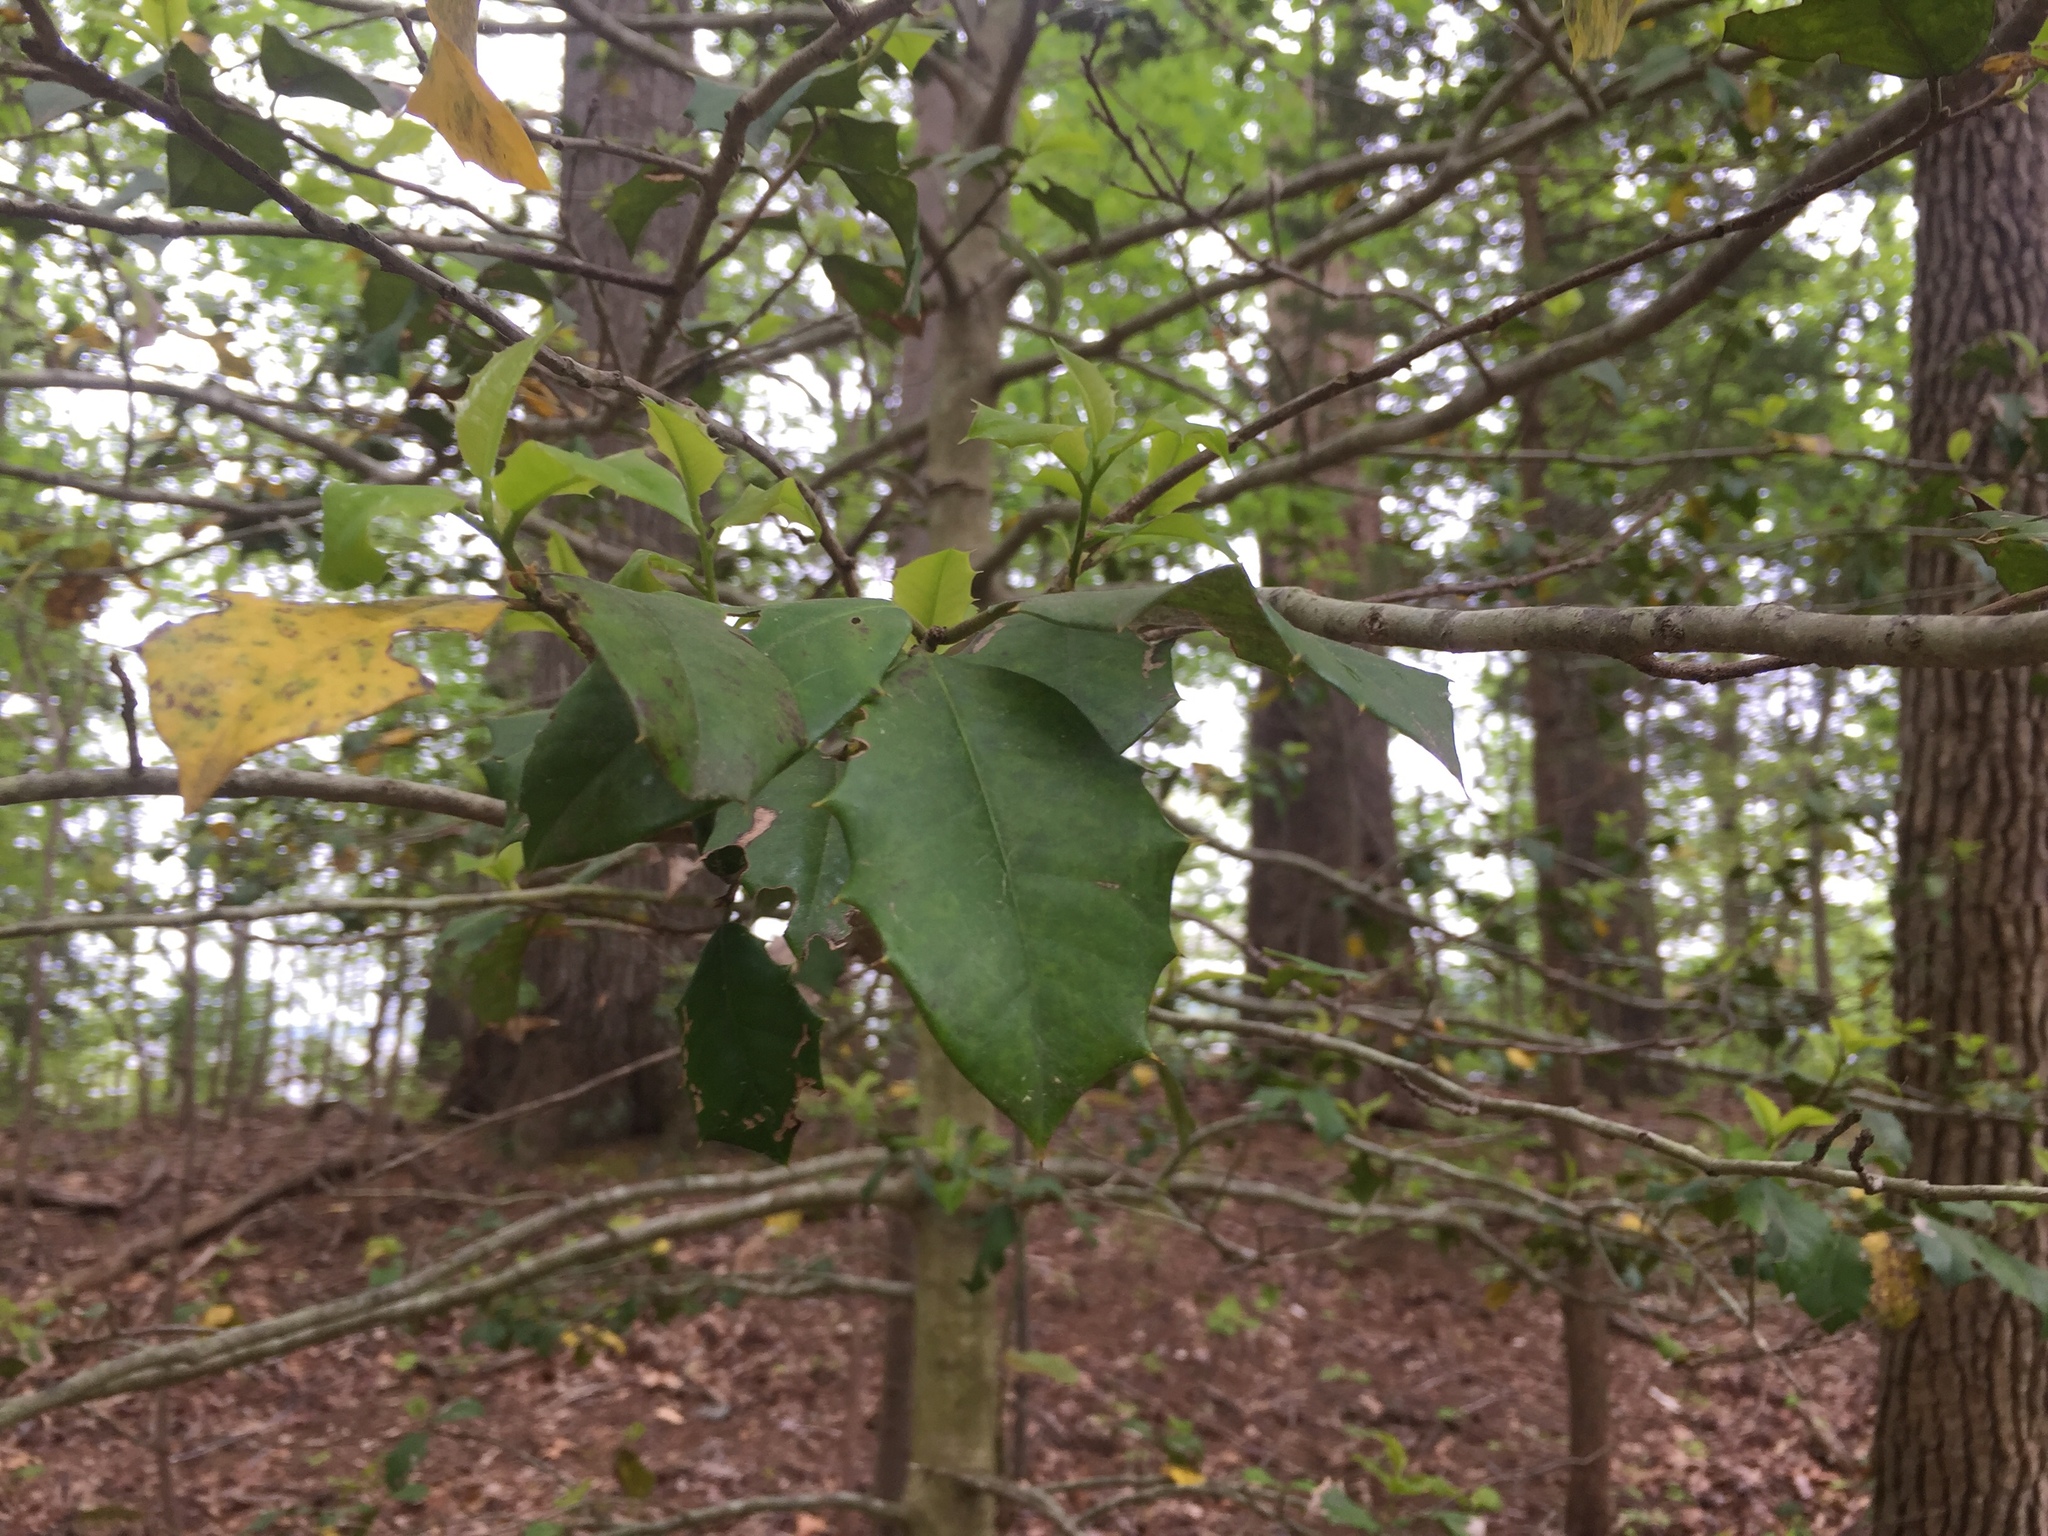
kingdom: Plantae
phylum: Tracheophyta
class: Magnoliopsida
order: Aquifoliales
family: Aquifoliaceae
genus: Ilex
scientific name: Ilex opaca
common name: American holly
